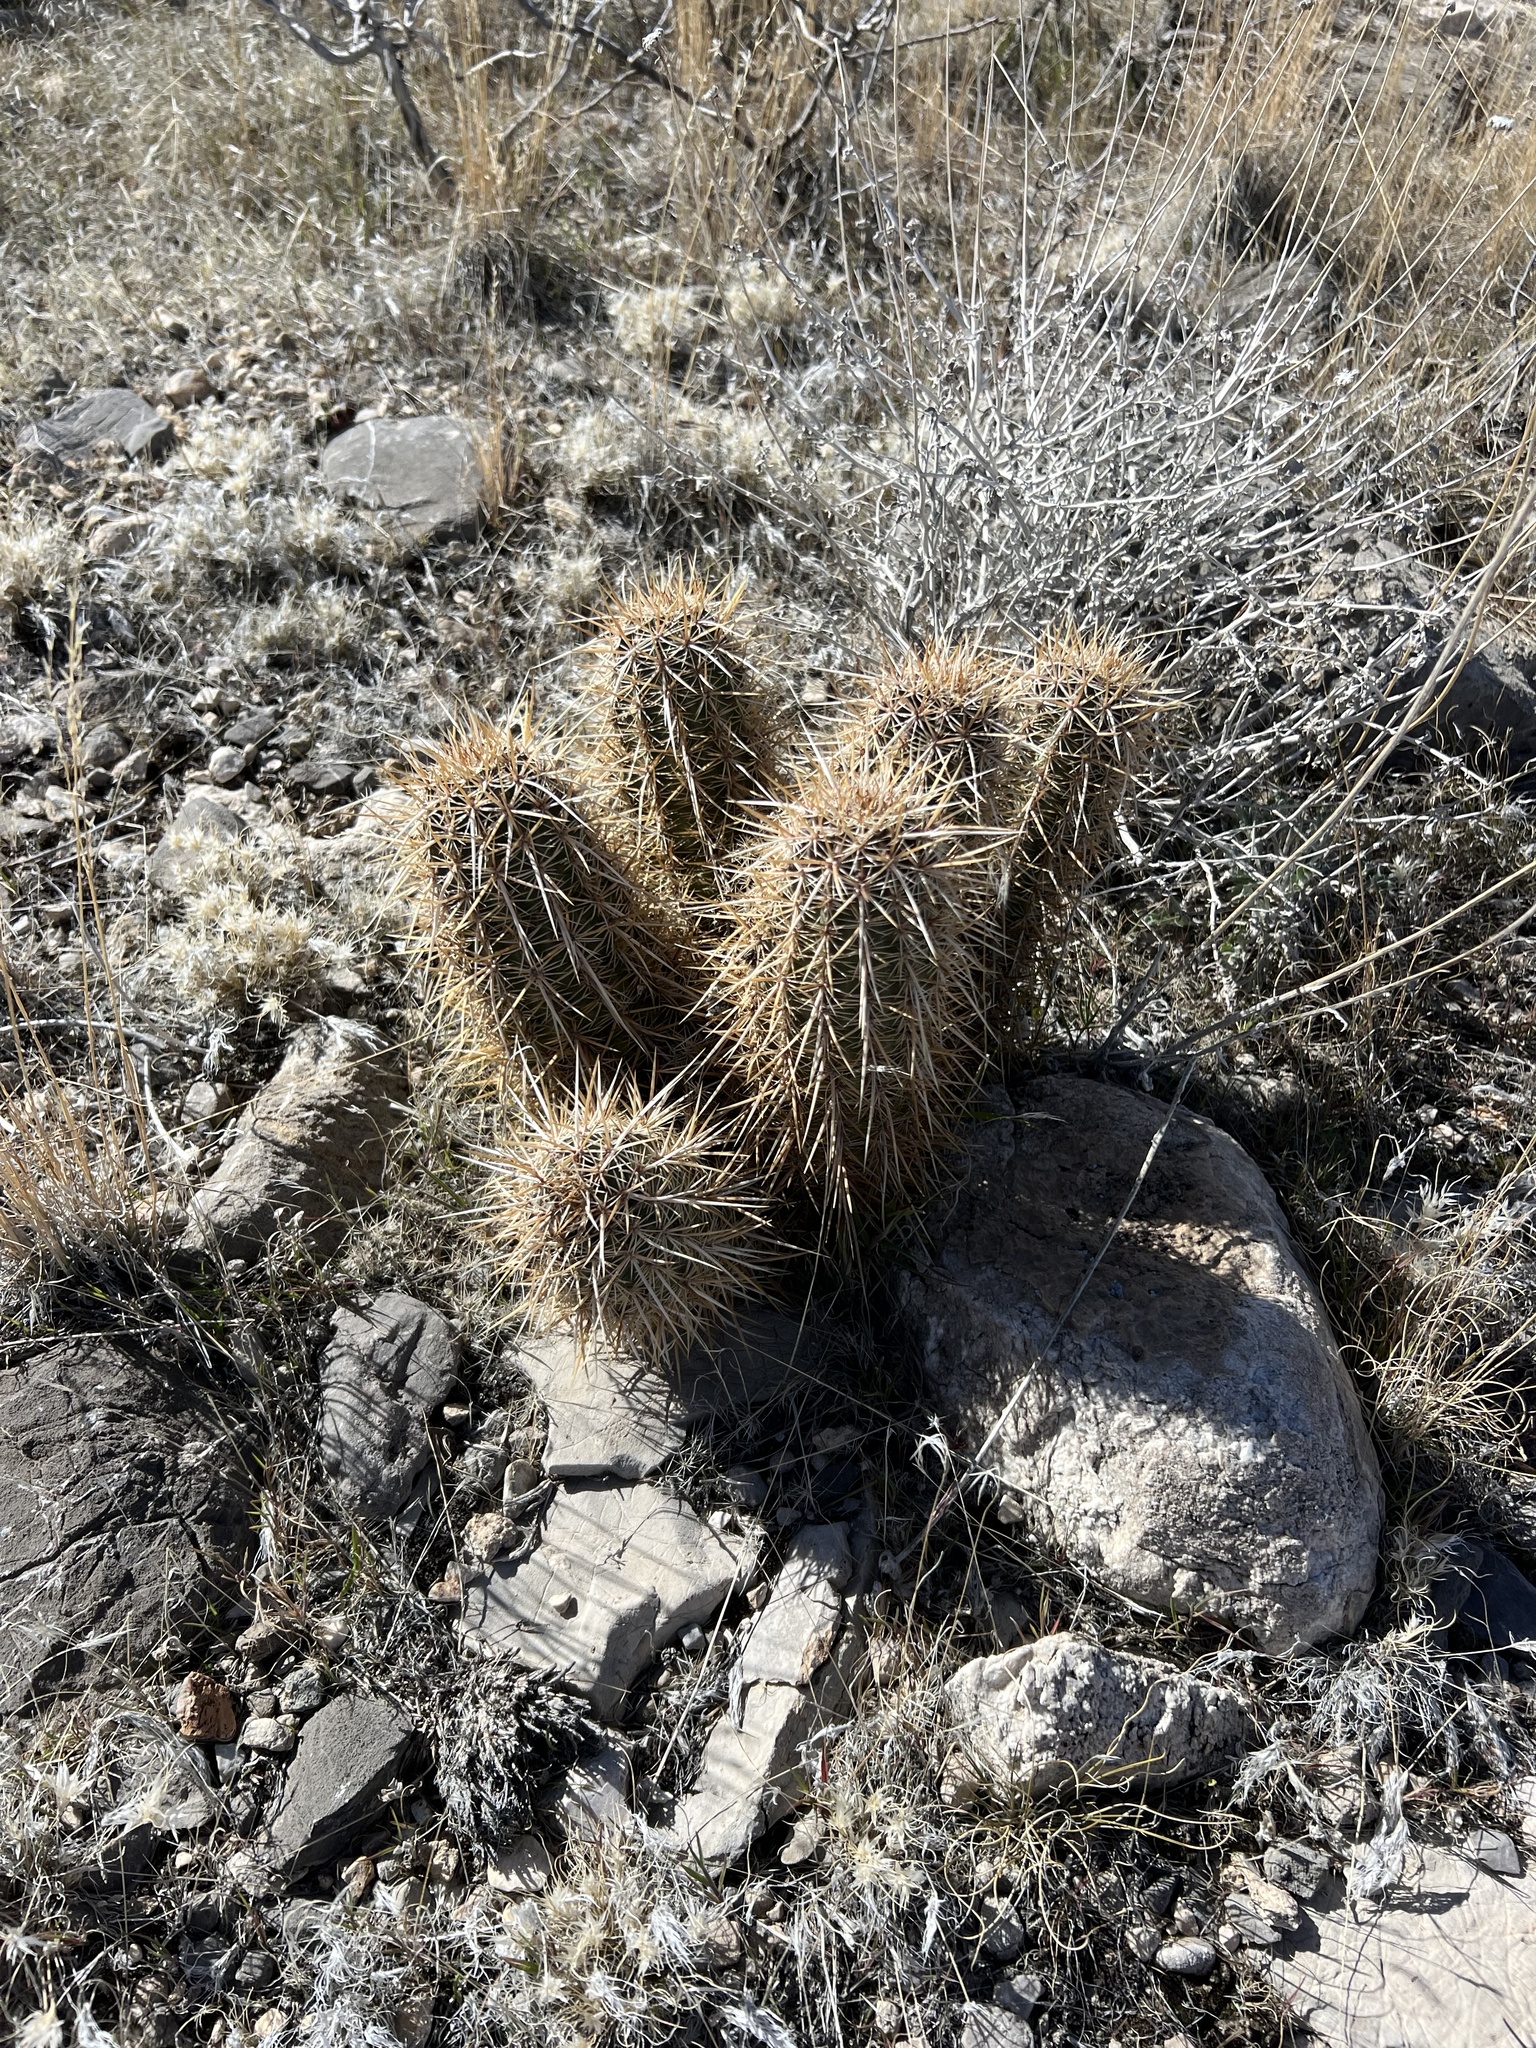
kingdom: Plantae
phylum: Tracheophyta
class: Magnoliopsida
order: Caryophyllales
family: Cactaceae
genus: Echinocereus
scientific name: Echinocereus engelmannii
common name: Engelmann's hedgehog cactus
